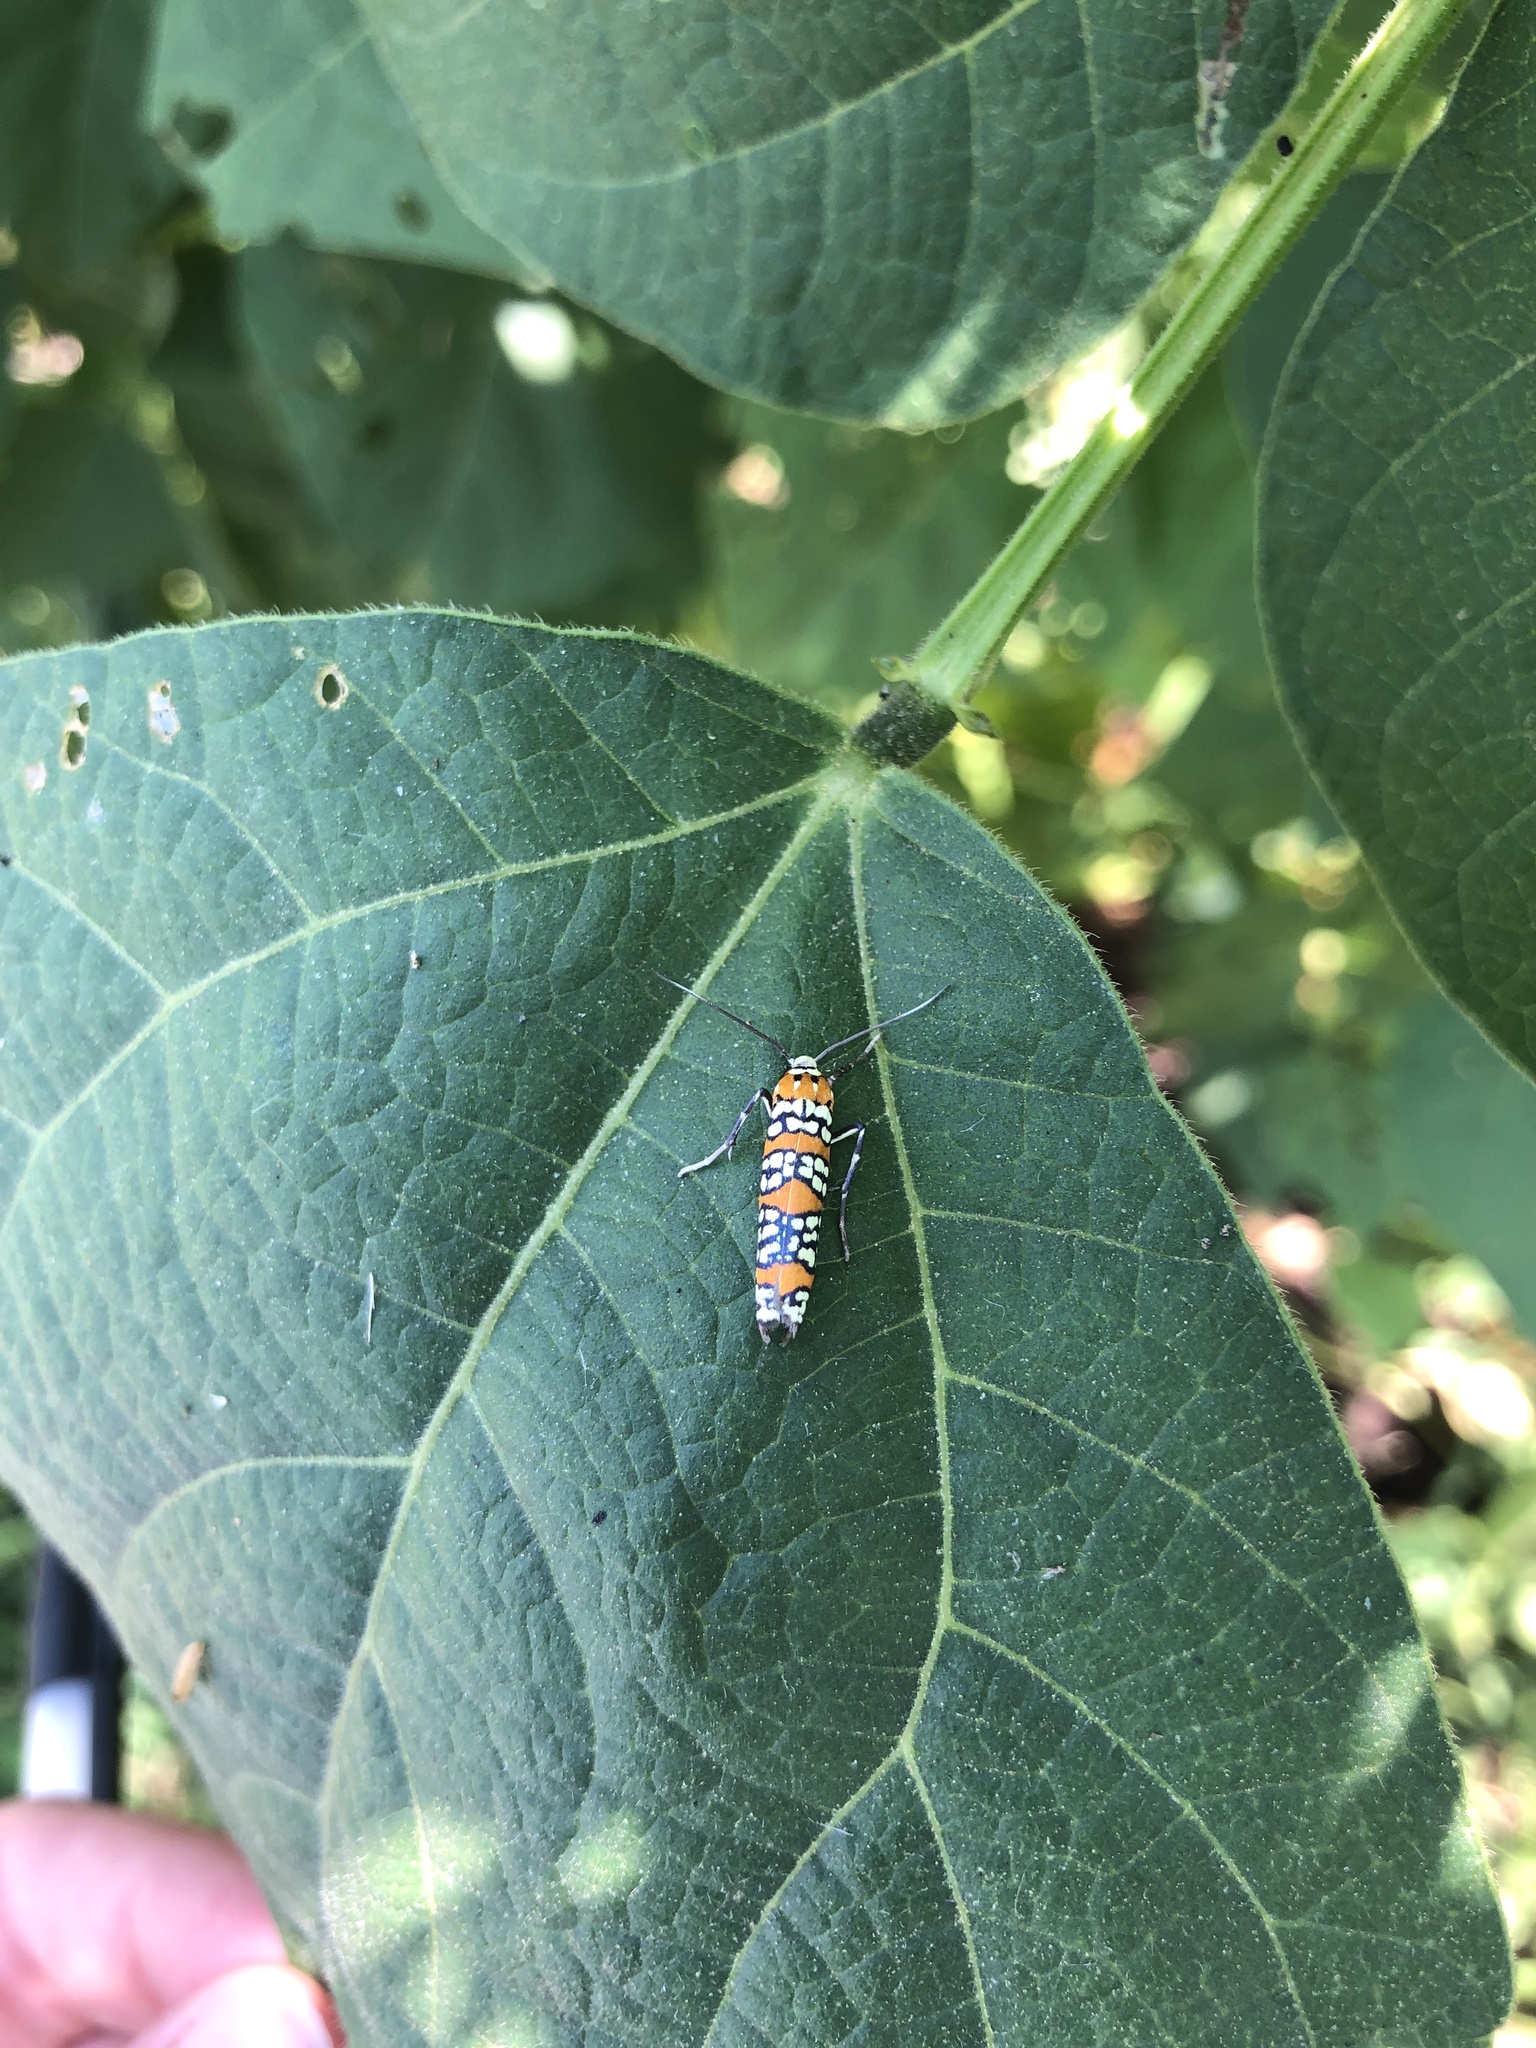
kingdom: Animalia
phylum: Arthropoda
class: Insecta
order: Lepidoptera
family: Attevidae
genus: Atteva
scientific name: Atteva punctella
